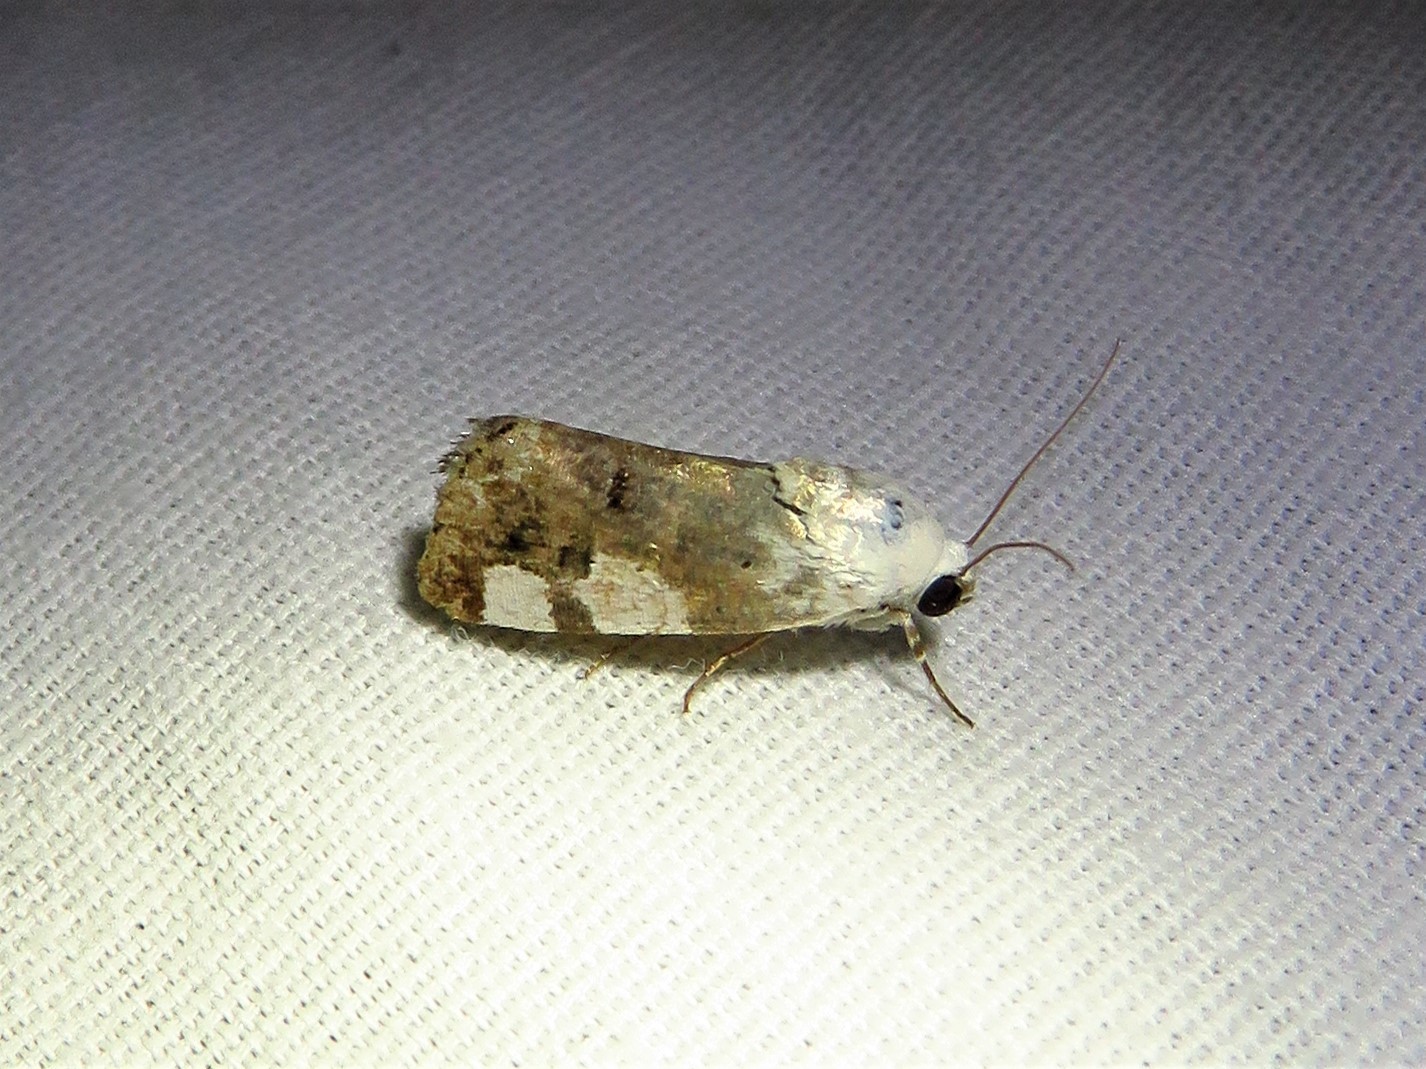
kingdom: Animalia
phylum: Arthropoda
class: Insecta
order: Lepidoptera
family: Noctuidae
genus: Acontia
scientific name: Acontia quadriplaga
